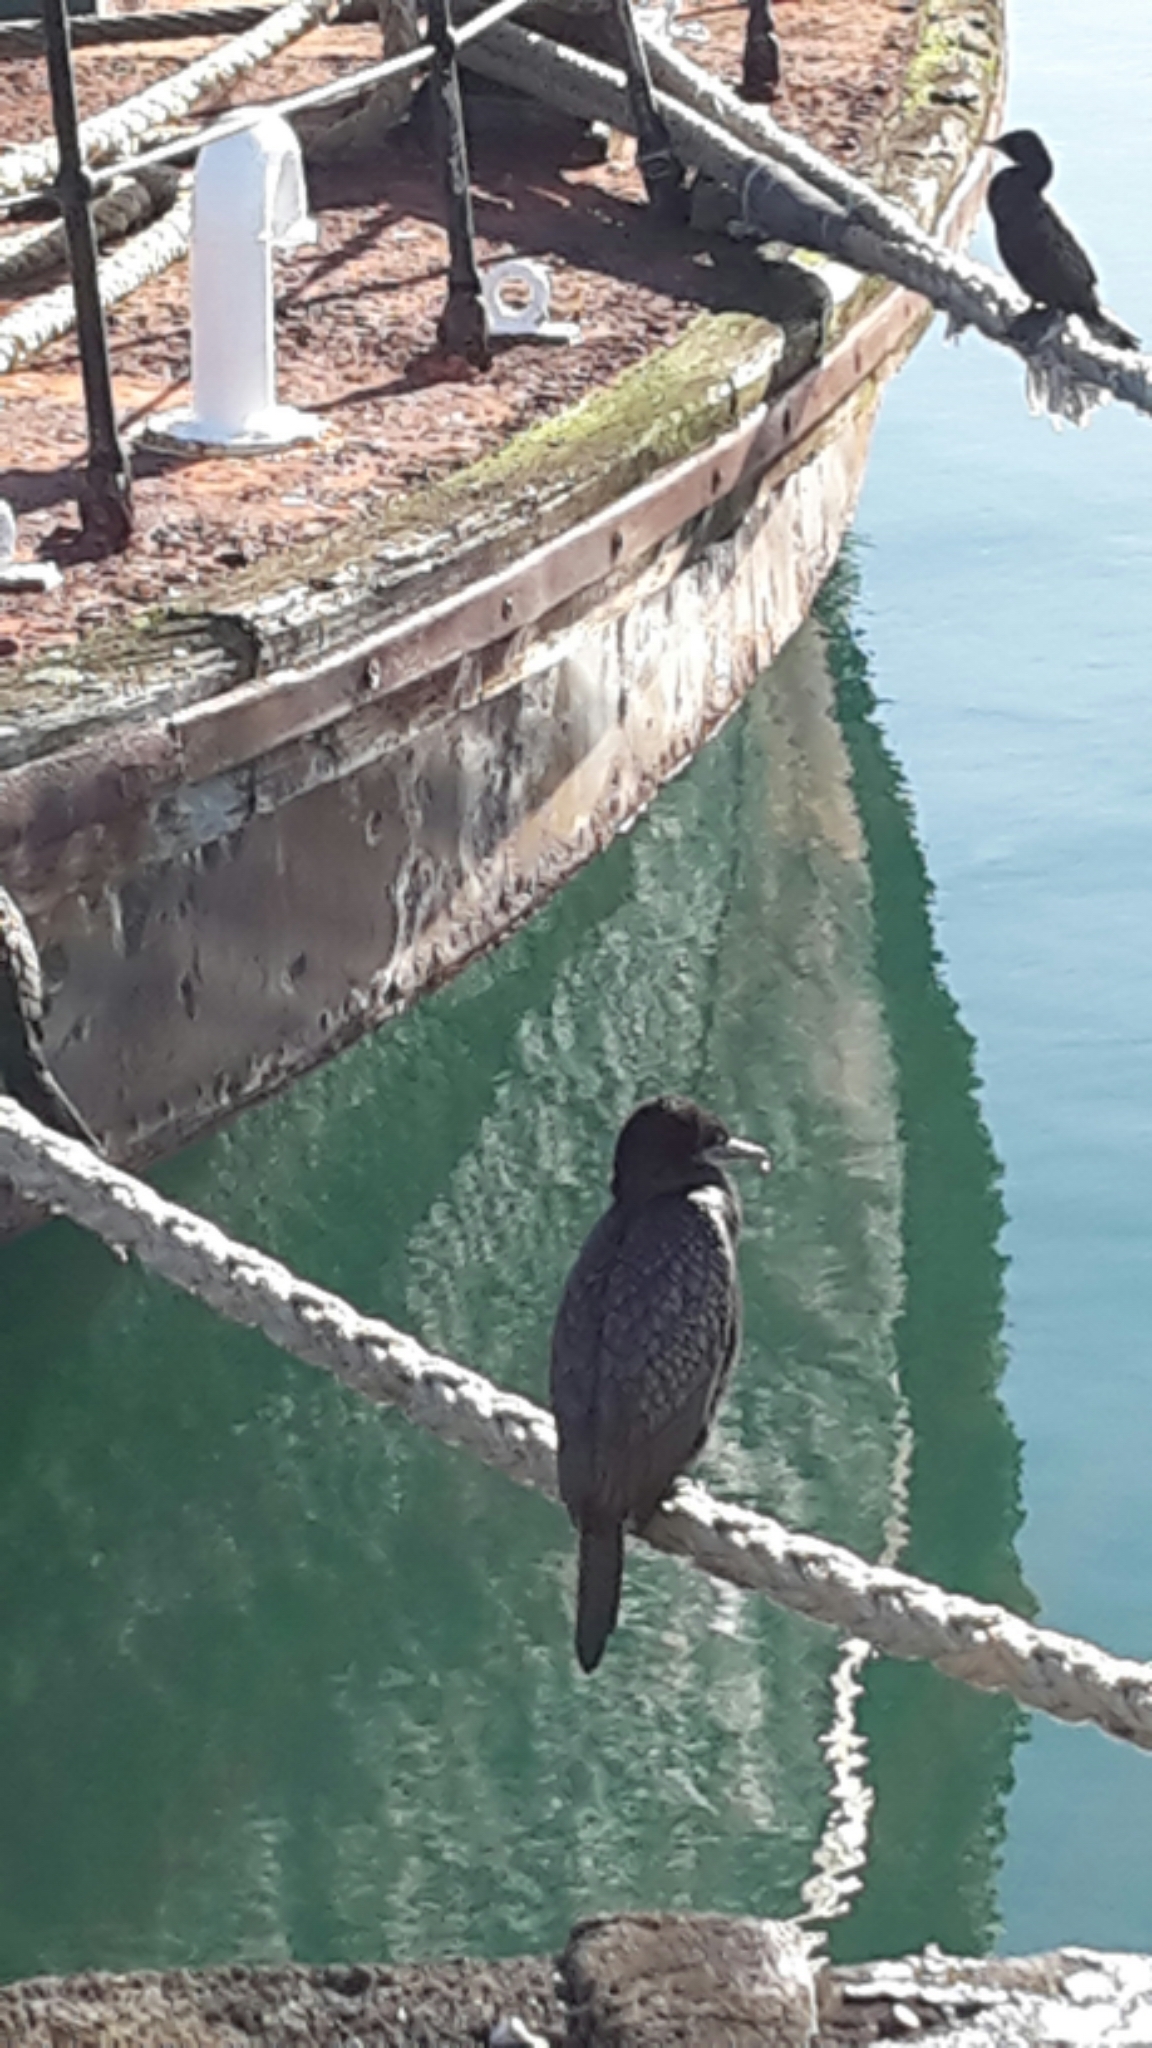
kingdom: Animalia
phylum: Chordata
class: Aves
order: Suliformes
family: Phalacrocoracidae
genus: Phalacrocorax
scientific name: Phalacrocorax sulcirostris
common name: Little black cormorant
